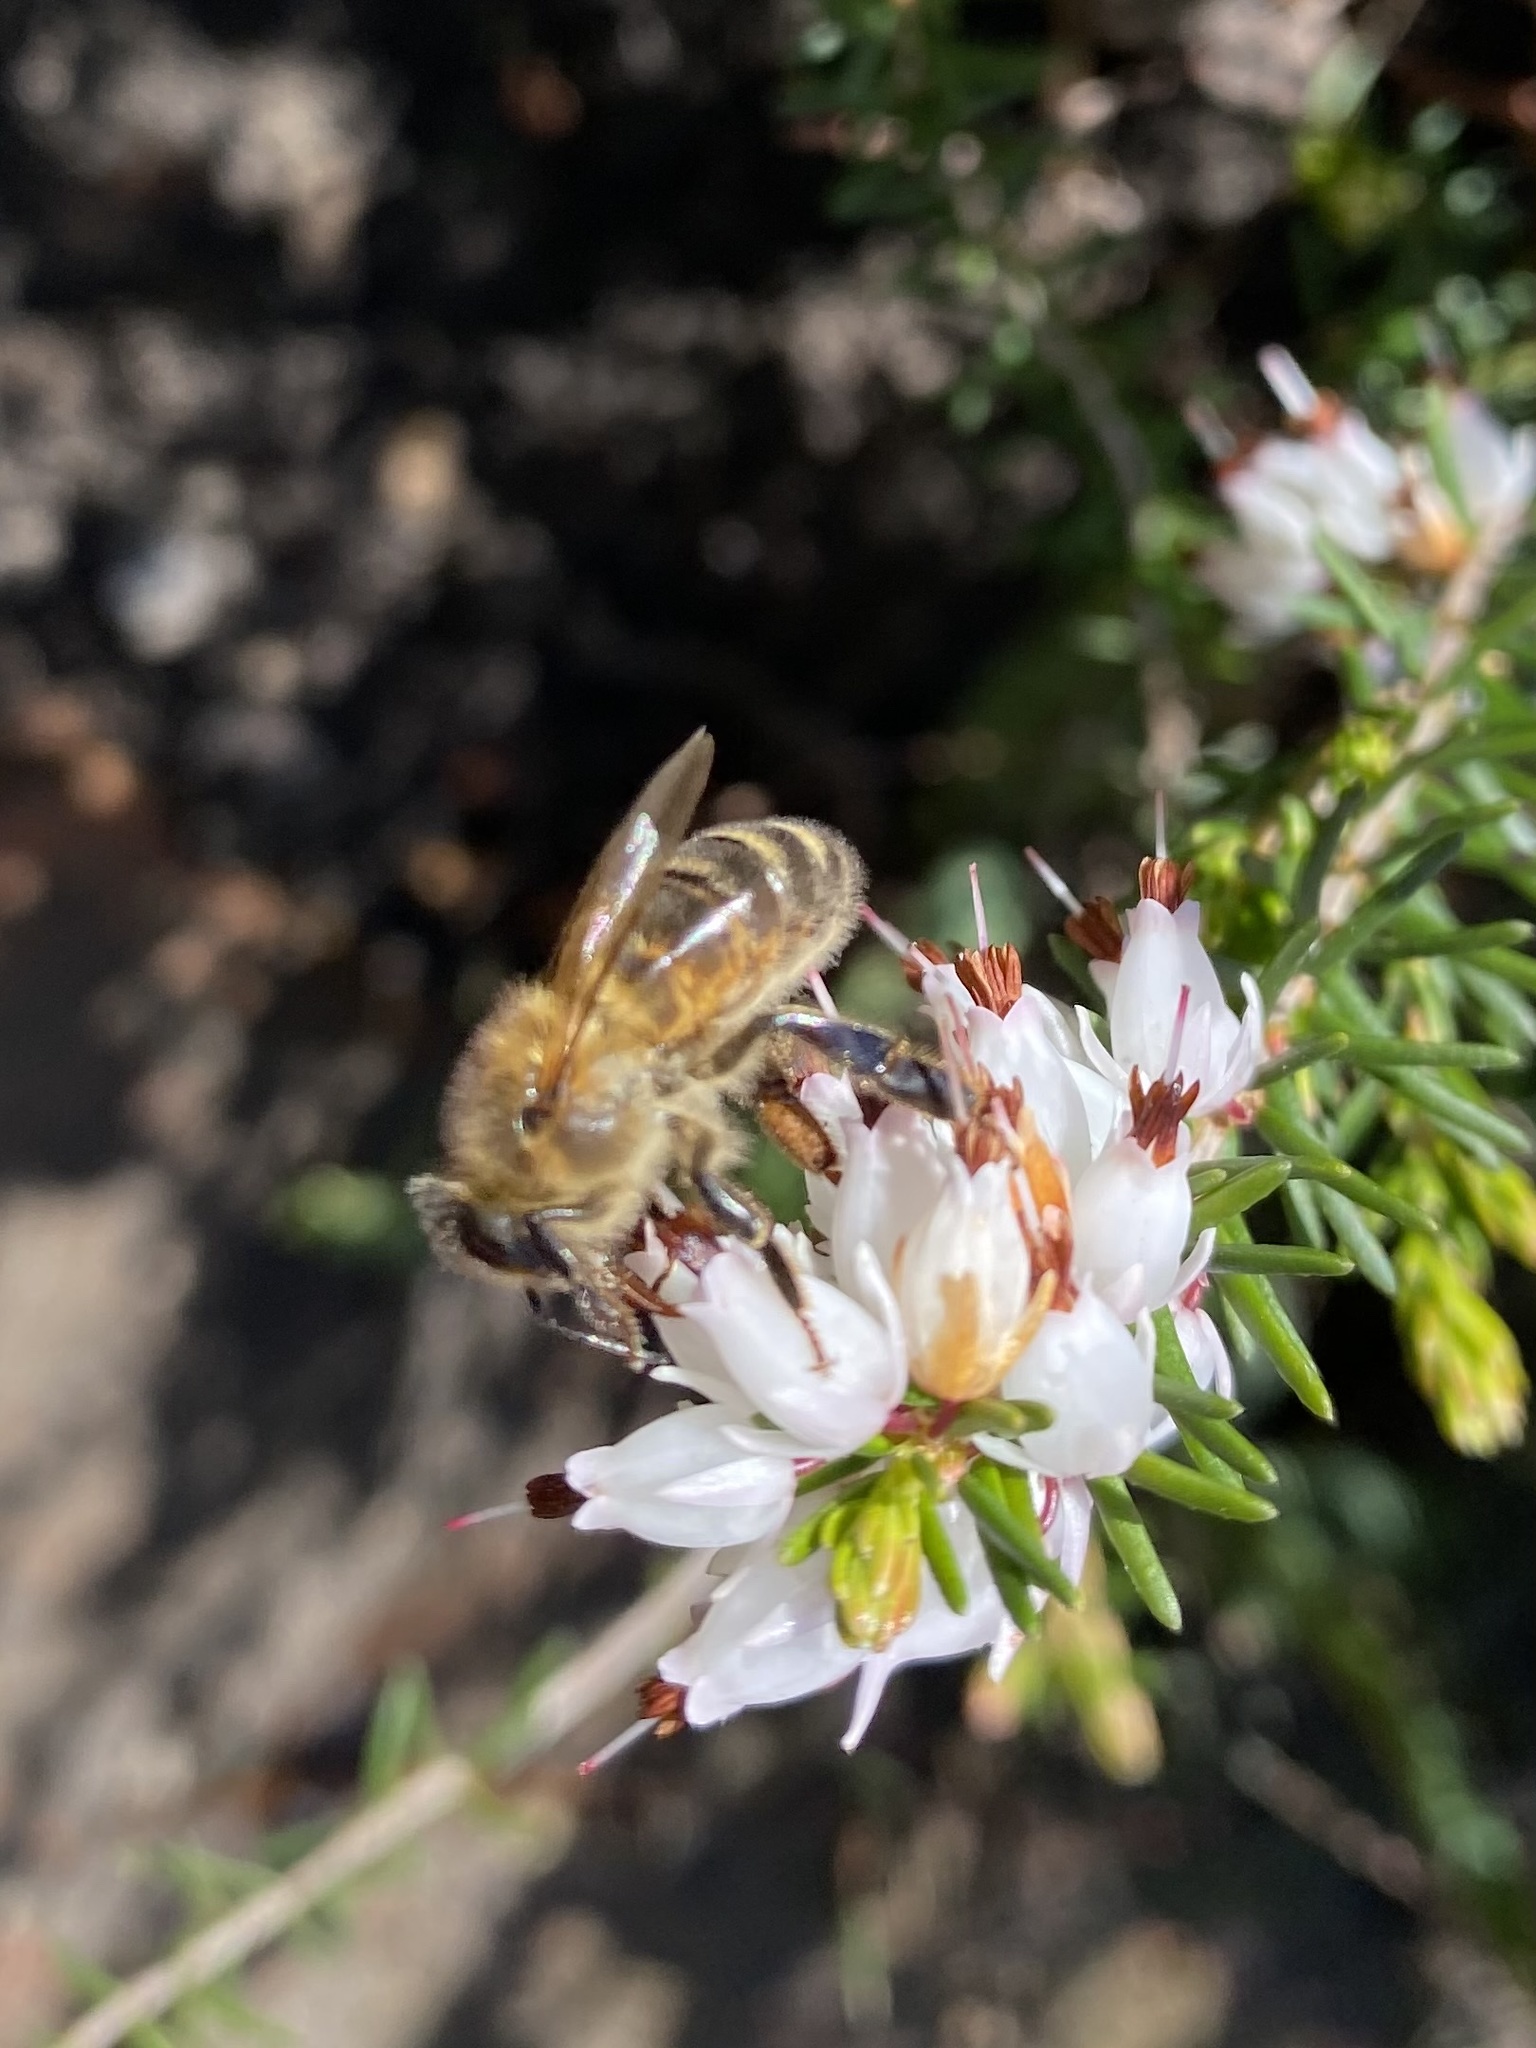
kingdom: Animalia
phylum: Arthropoda
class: Insecta
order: Hymenoptera
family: Apidae
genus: Apis
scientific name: Apis mellifera
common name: Honey bee
